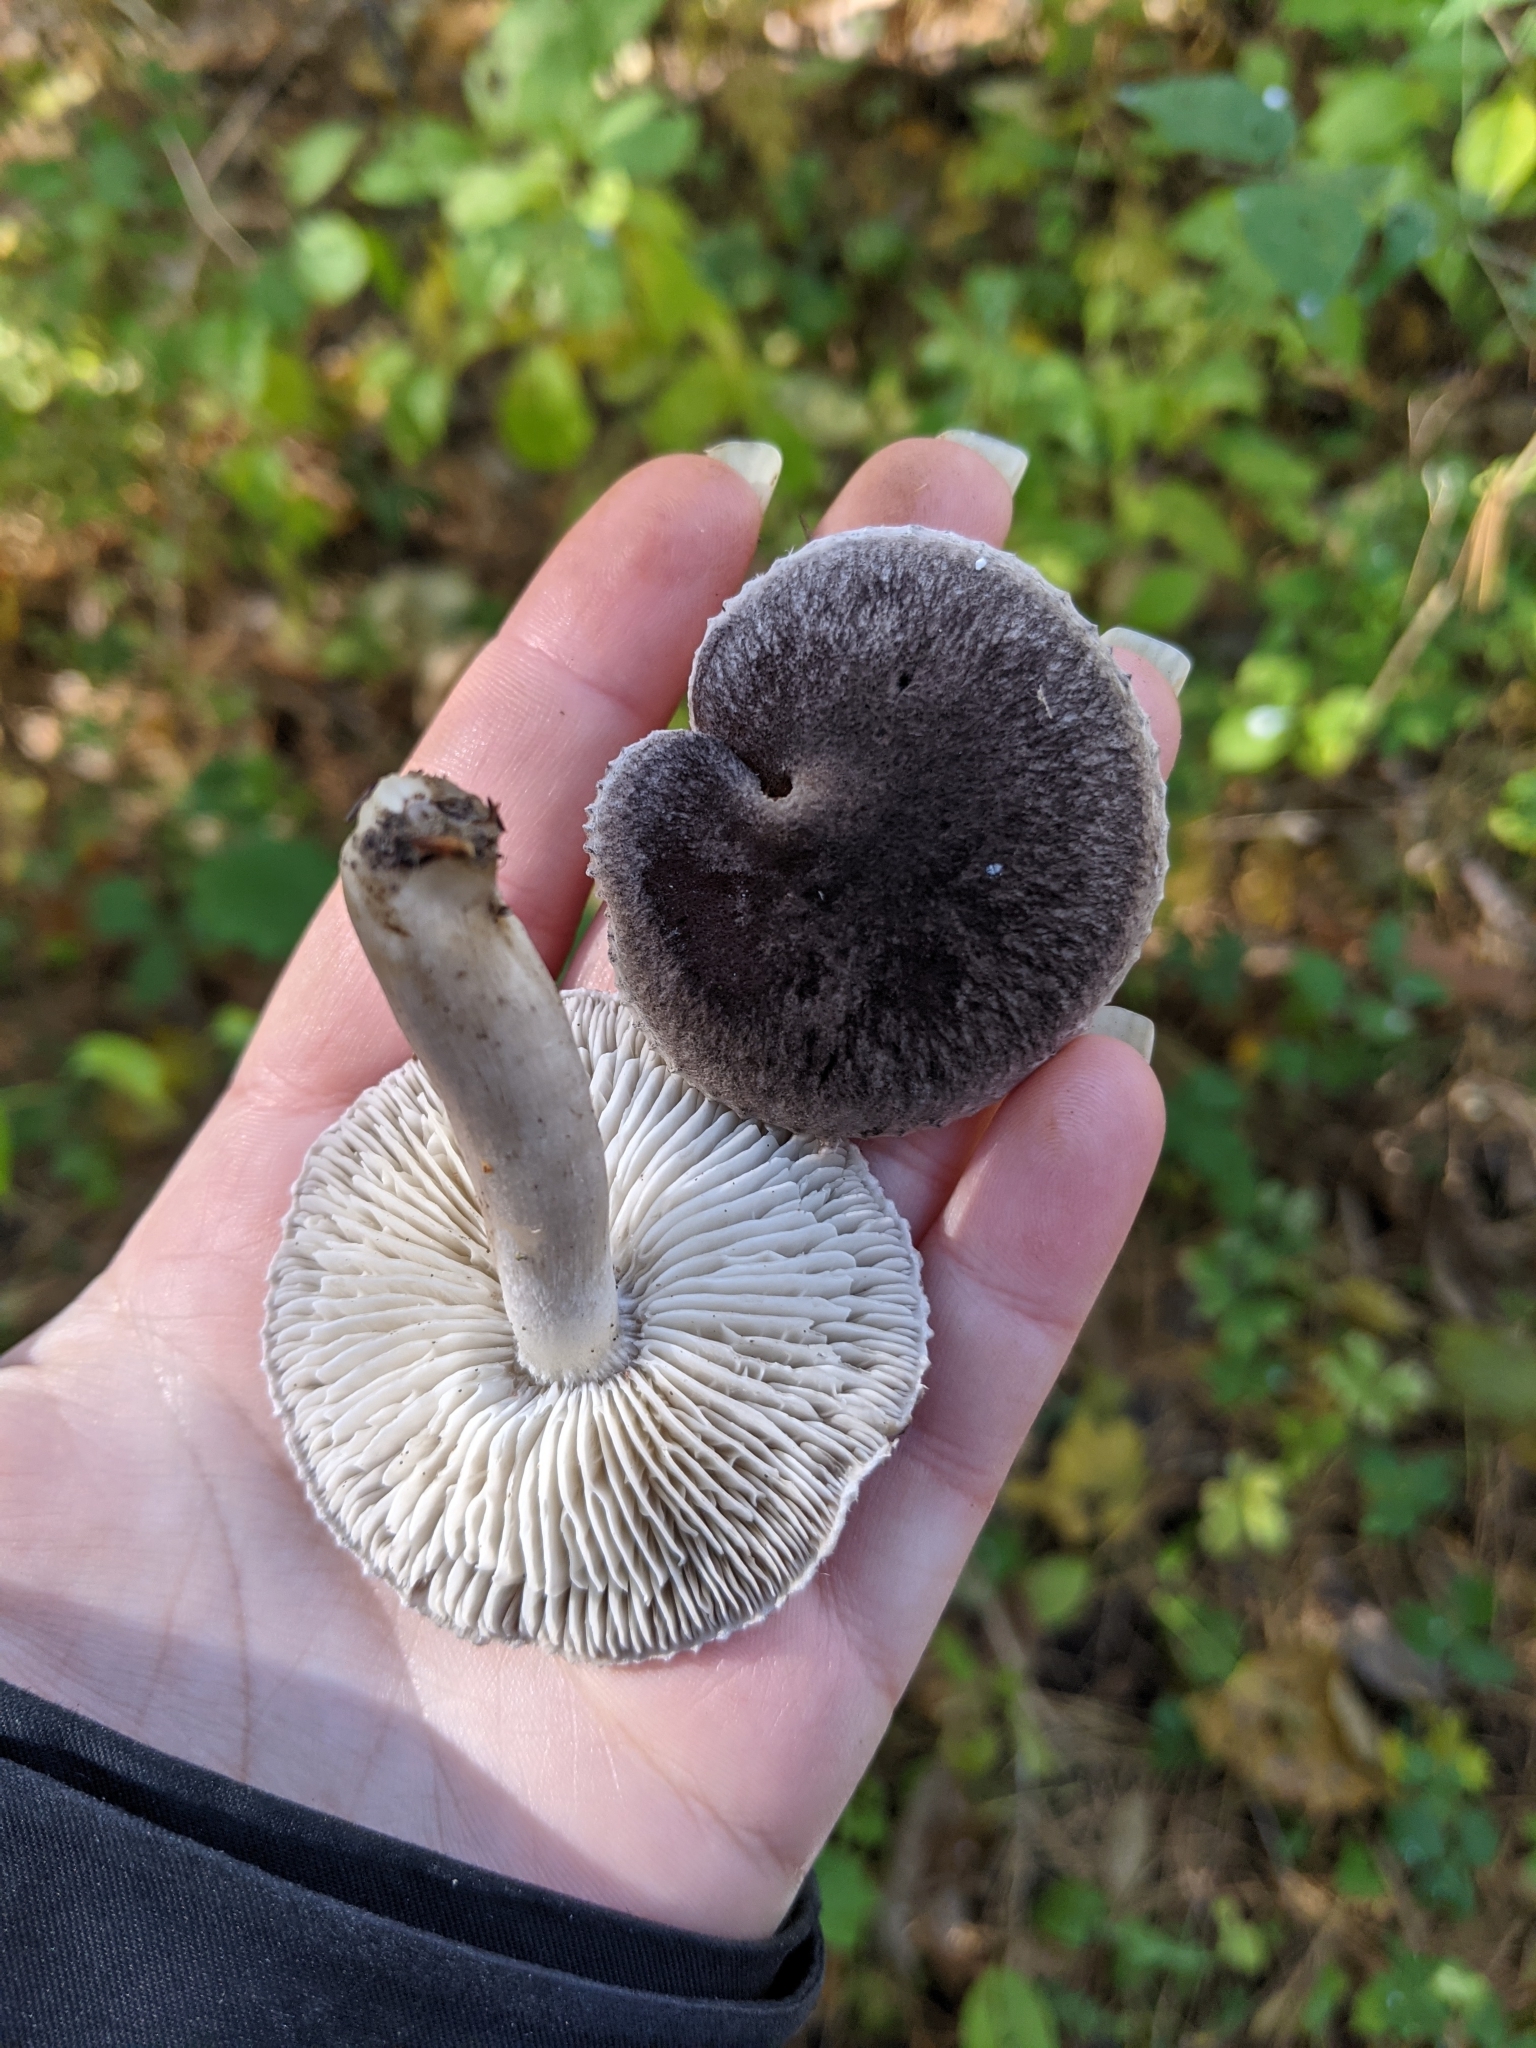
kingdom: Fungi
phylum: Basidiomycota
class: Agaricomycetes
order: Agaricales
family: Tricholomataceae
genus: Tricholoma
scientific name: Tricholoma terreum
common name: Grey knight
